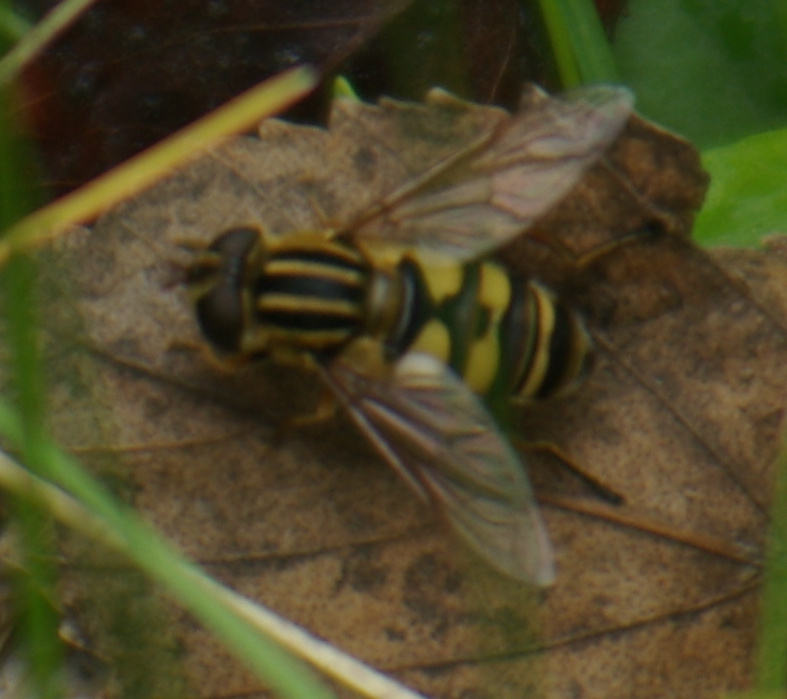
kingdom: Animalia
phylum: Arthropoda
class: Insecta
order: Diptera
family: Syrphidae
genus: Helophilus
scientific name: Helophilus fasciatus
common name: Narrow-headed marsh fly
